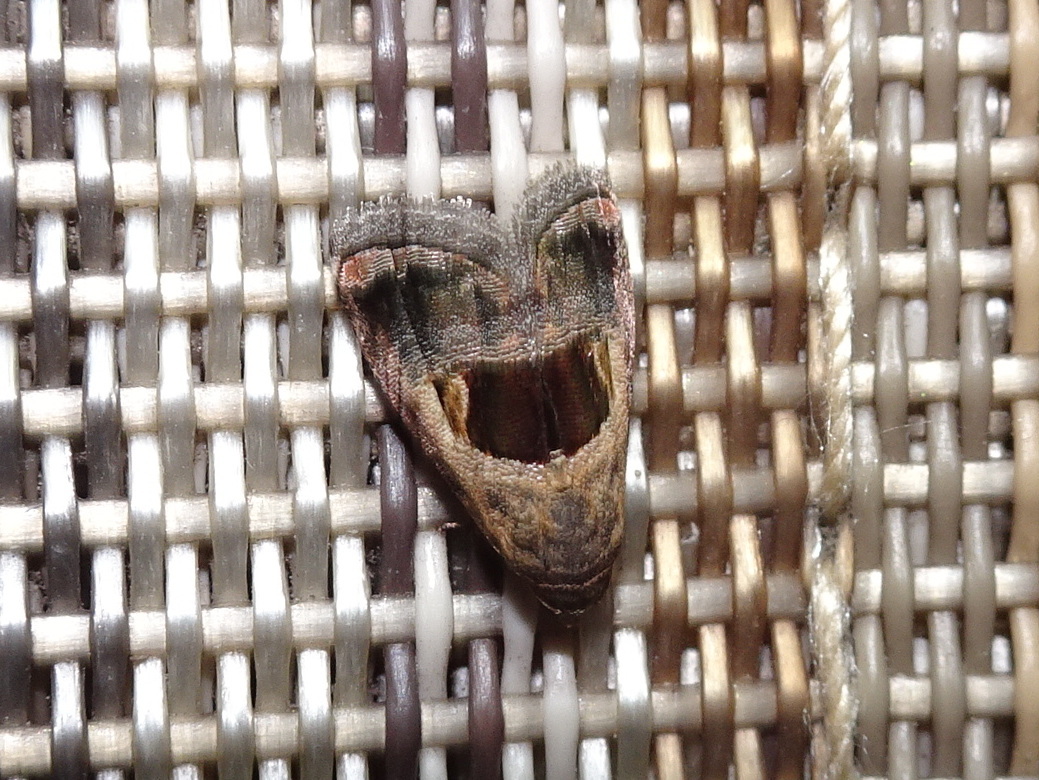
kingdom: Animalia
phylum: Arthropoda
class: Insecta
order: Lepidoptera
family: Noctuidae
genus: Tripudia
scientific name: Tripudia rectangula
